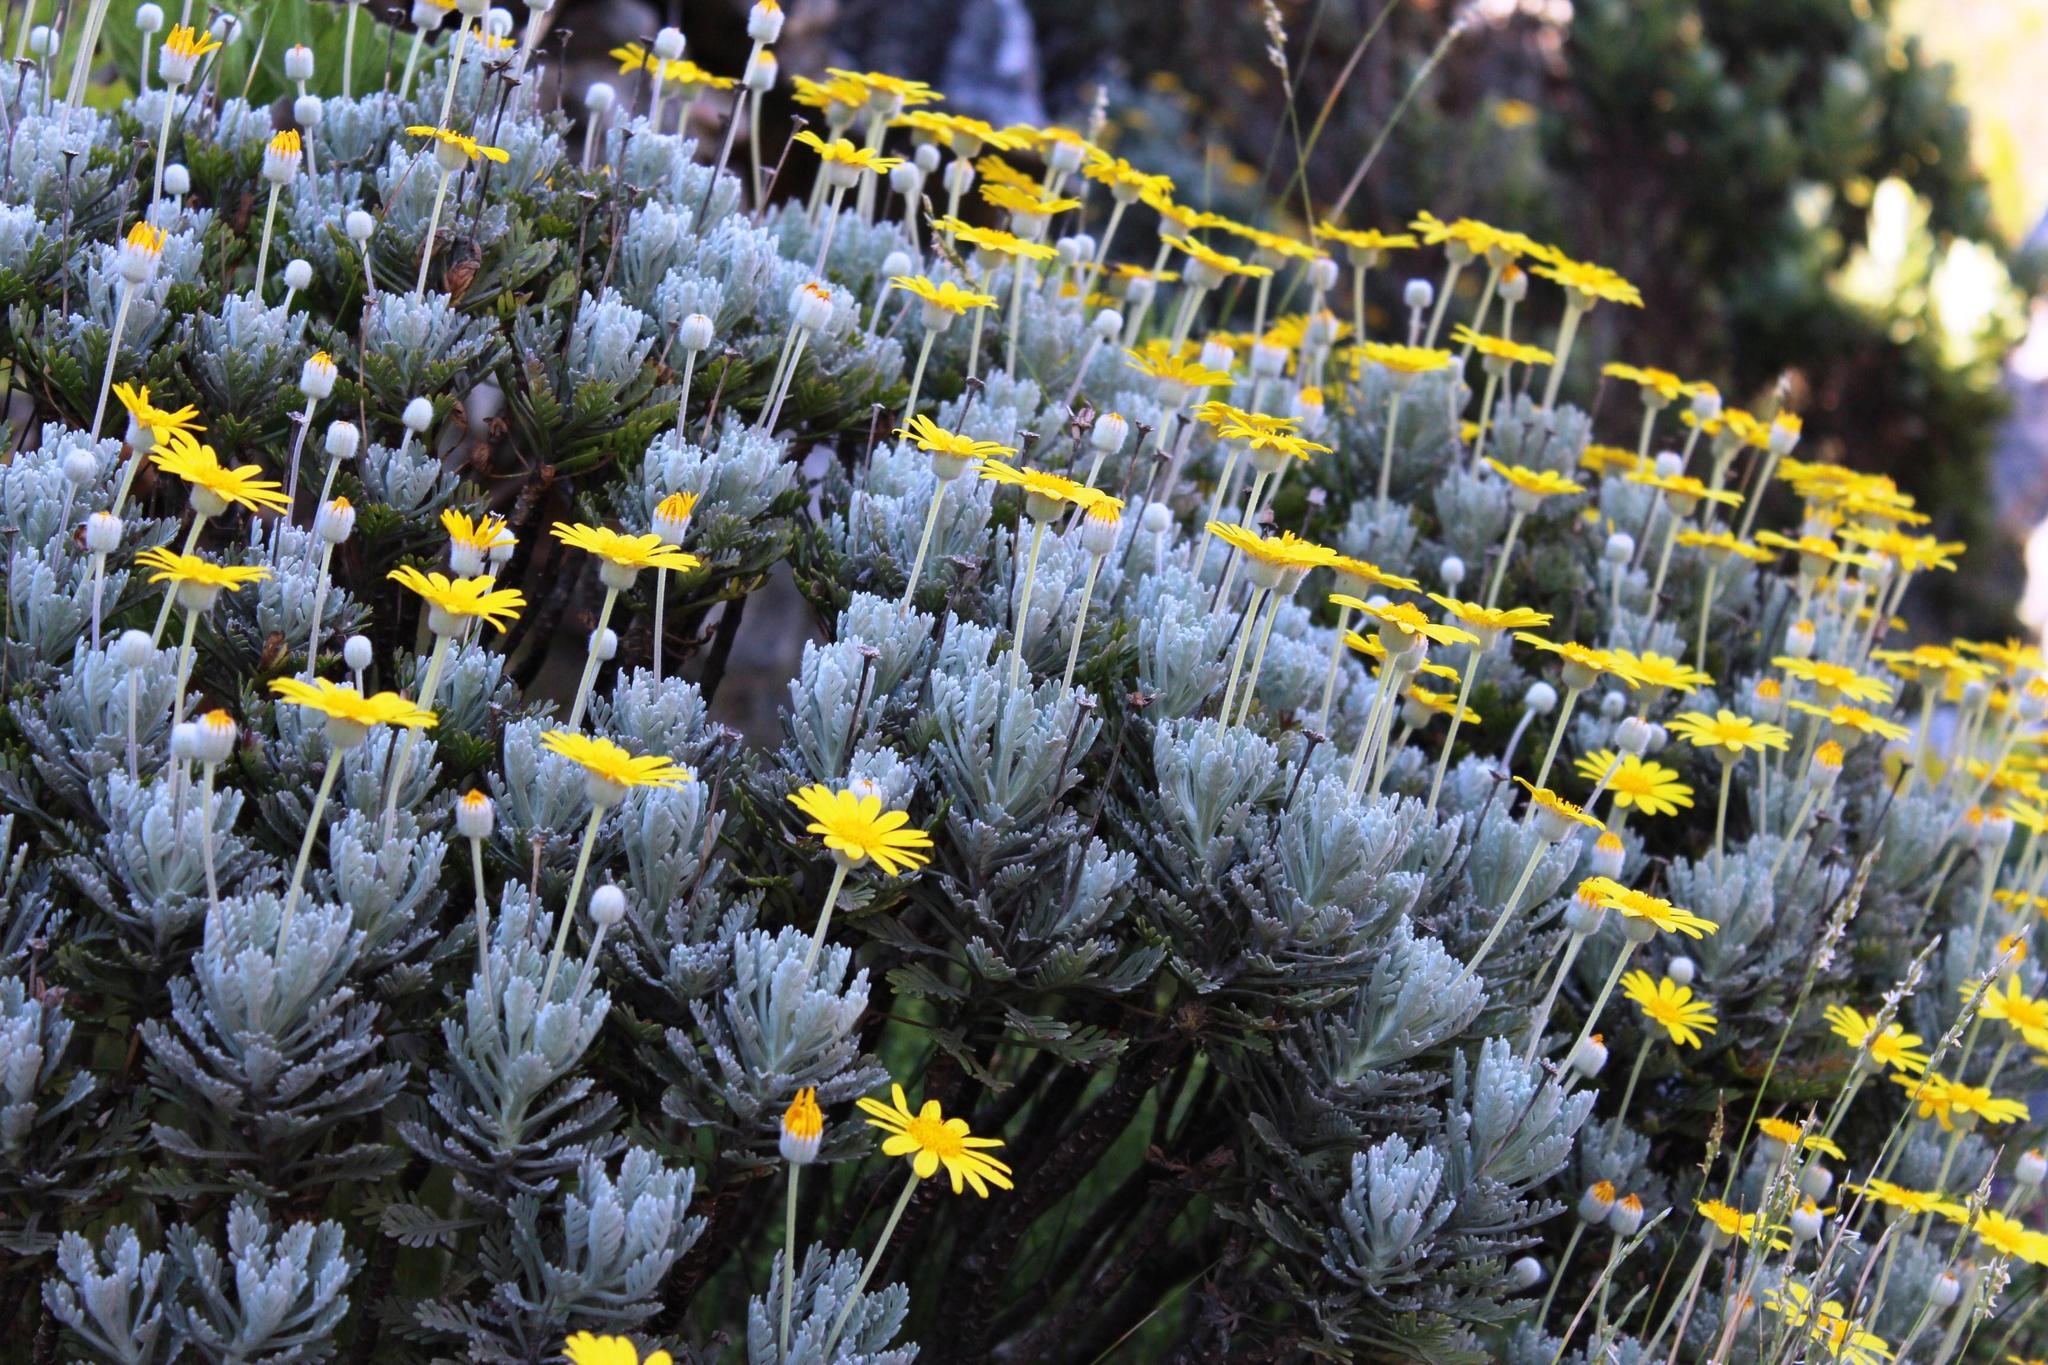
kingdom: Plantae
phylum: Tracheophyta
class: Magnoliopsida
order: Asterales
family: Asteraceae
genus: Euryops
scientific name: Euryops pectinatus
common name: Gray-leaf euryops
